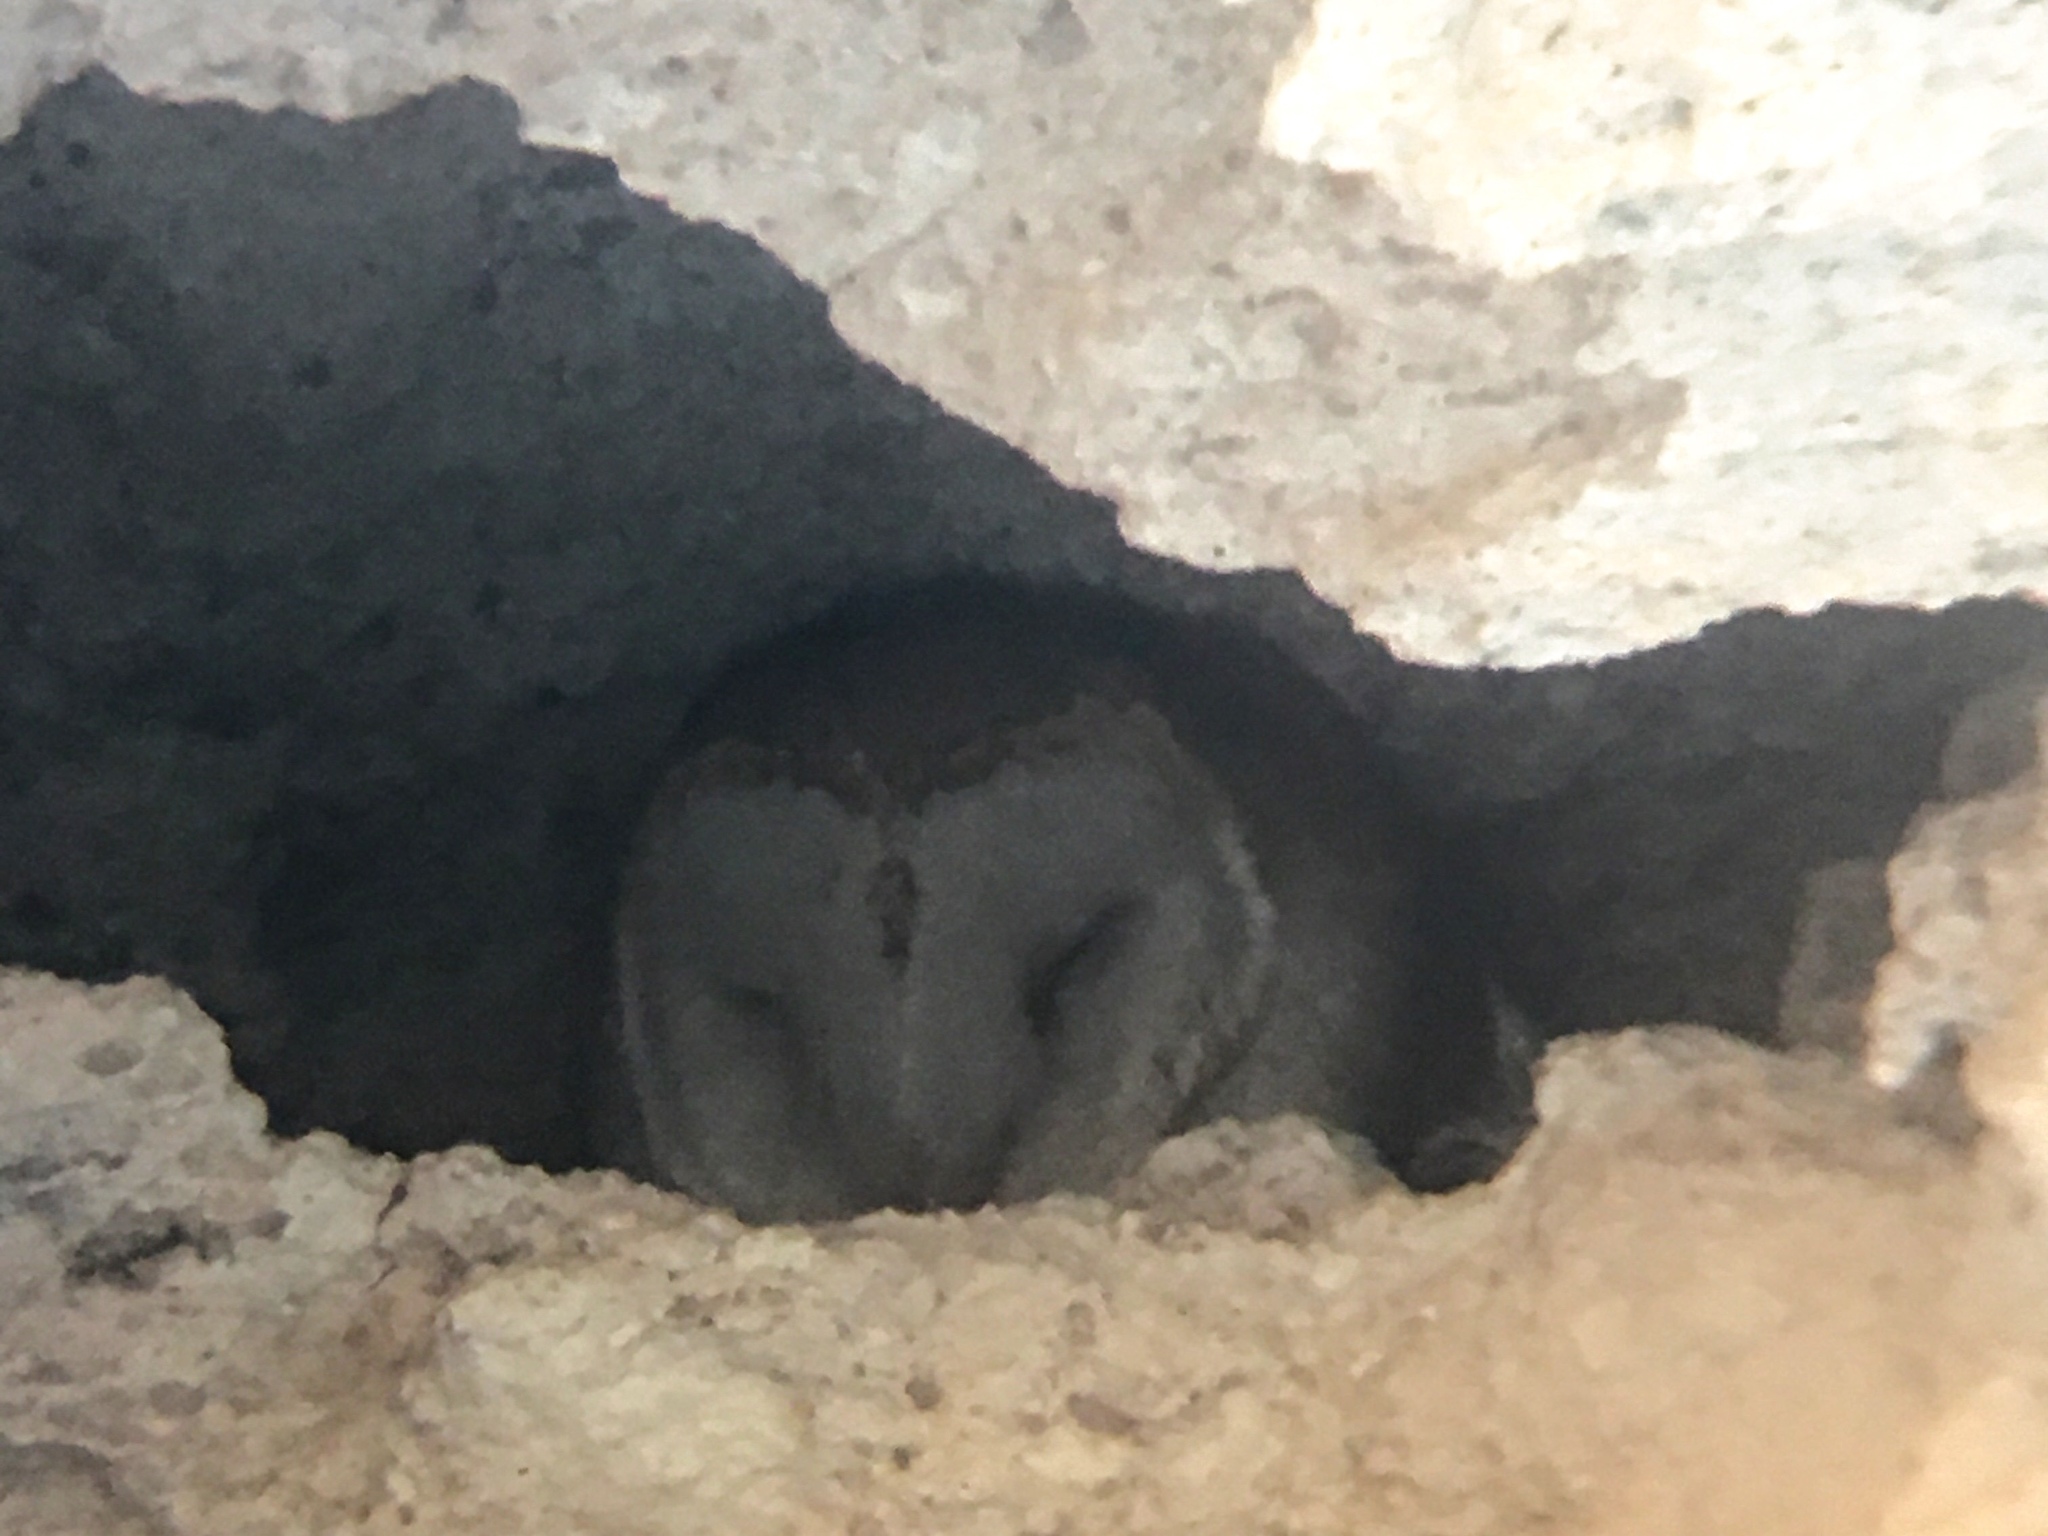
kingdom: Animalia
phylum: Chordata
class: Aves
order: Strigiformes
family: Tytonidae
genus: Tyto
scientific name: Tyto alba
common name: Barn owl
